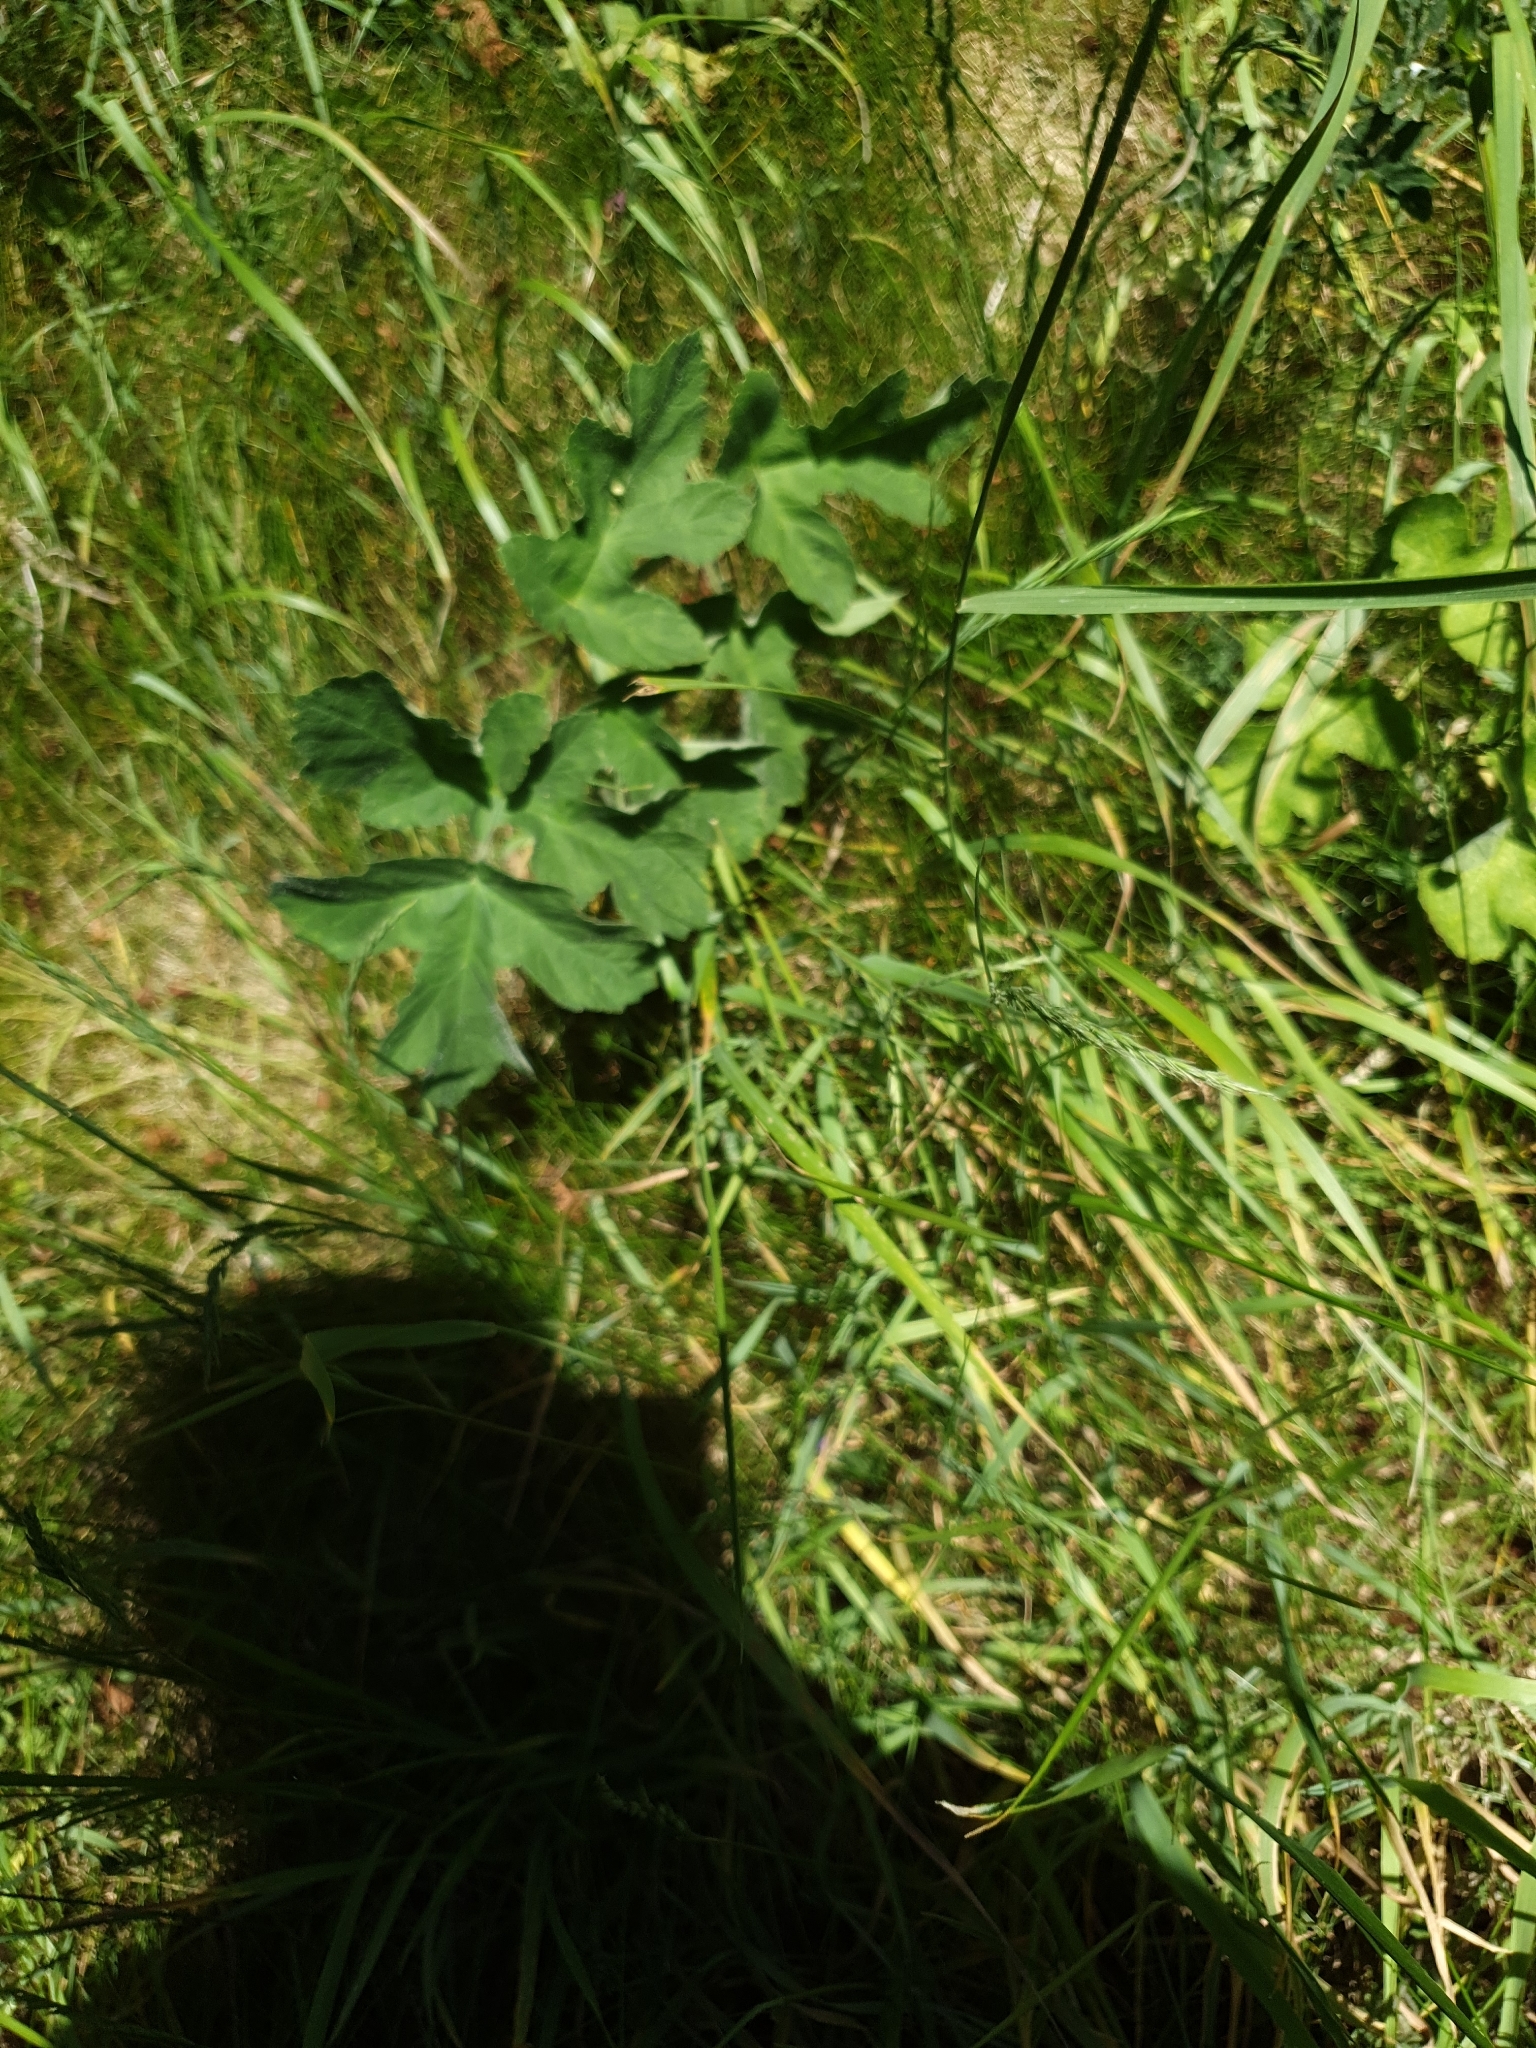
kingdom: Plantae
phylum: Tracheophyta
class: Magnoliopsida
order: Apiales
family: Apiaceae
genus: Heracleum
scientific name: Heracleum sphondylium
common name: Hogweed
